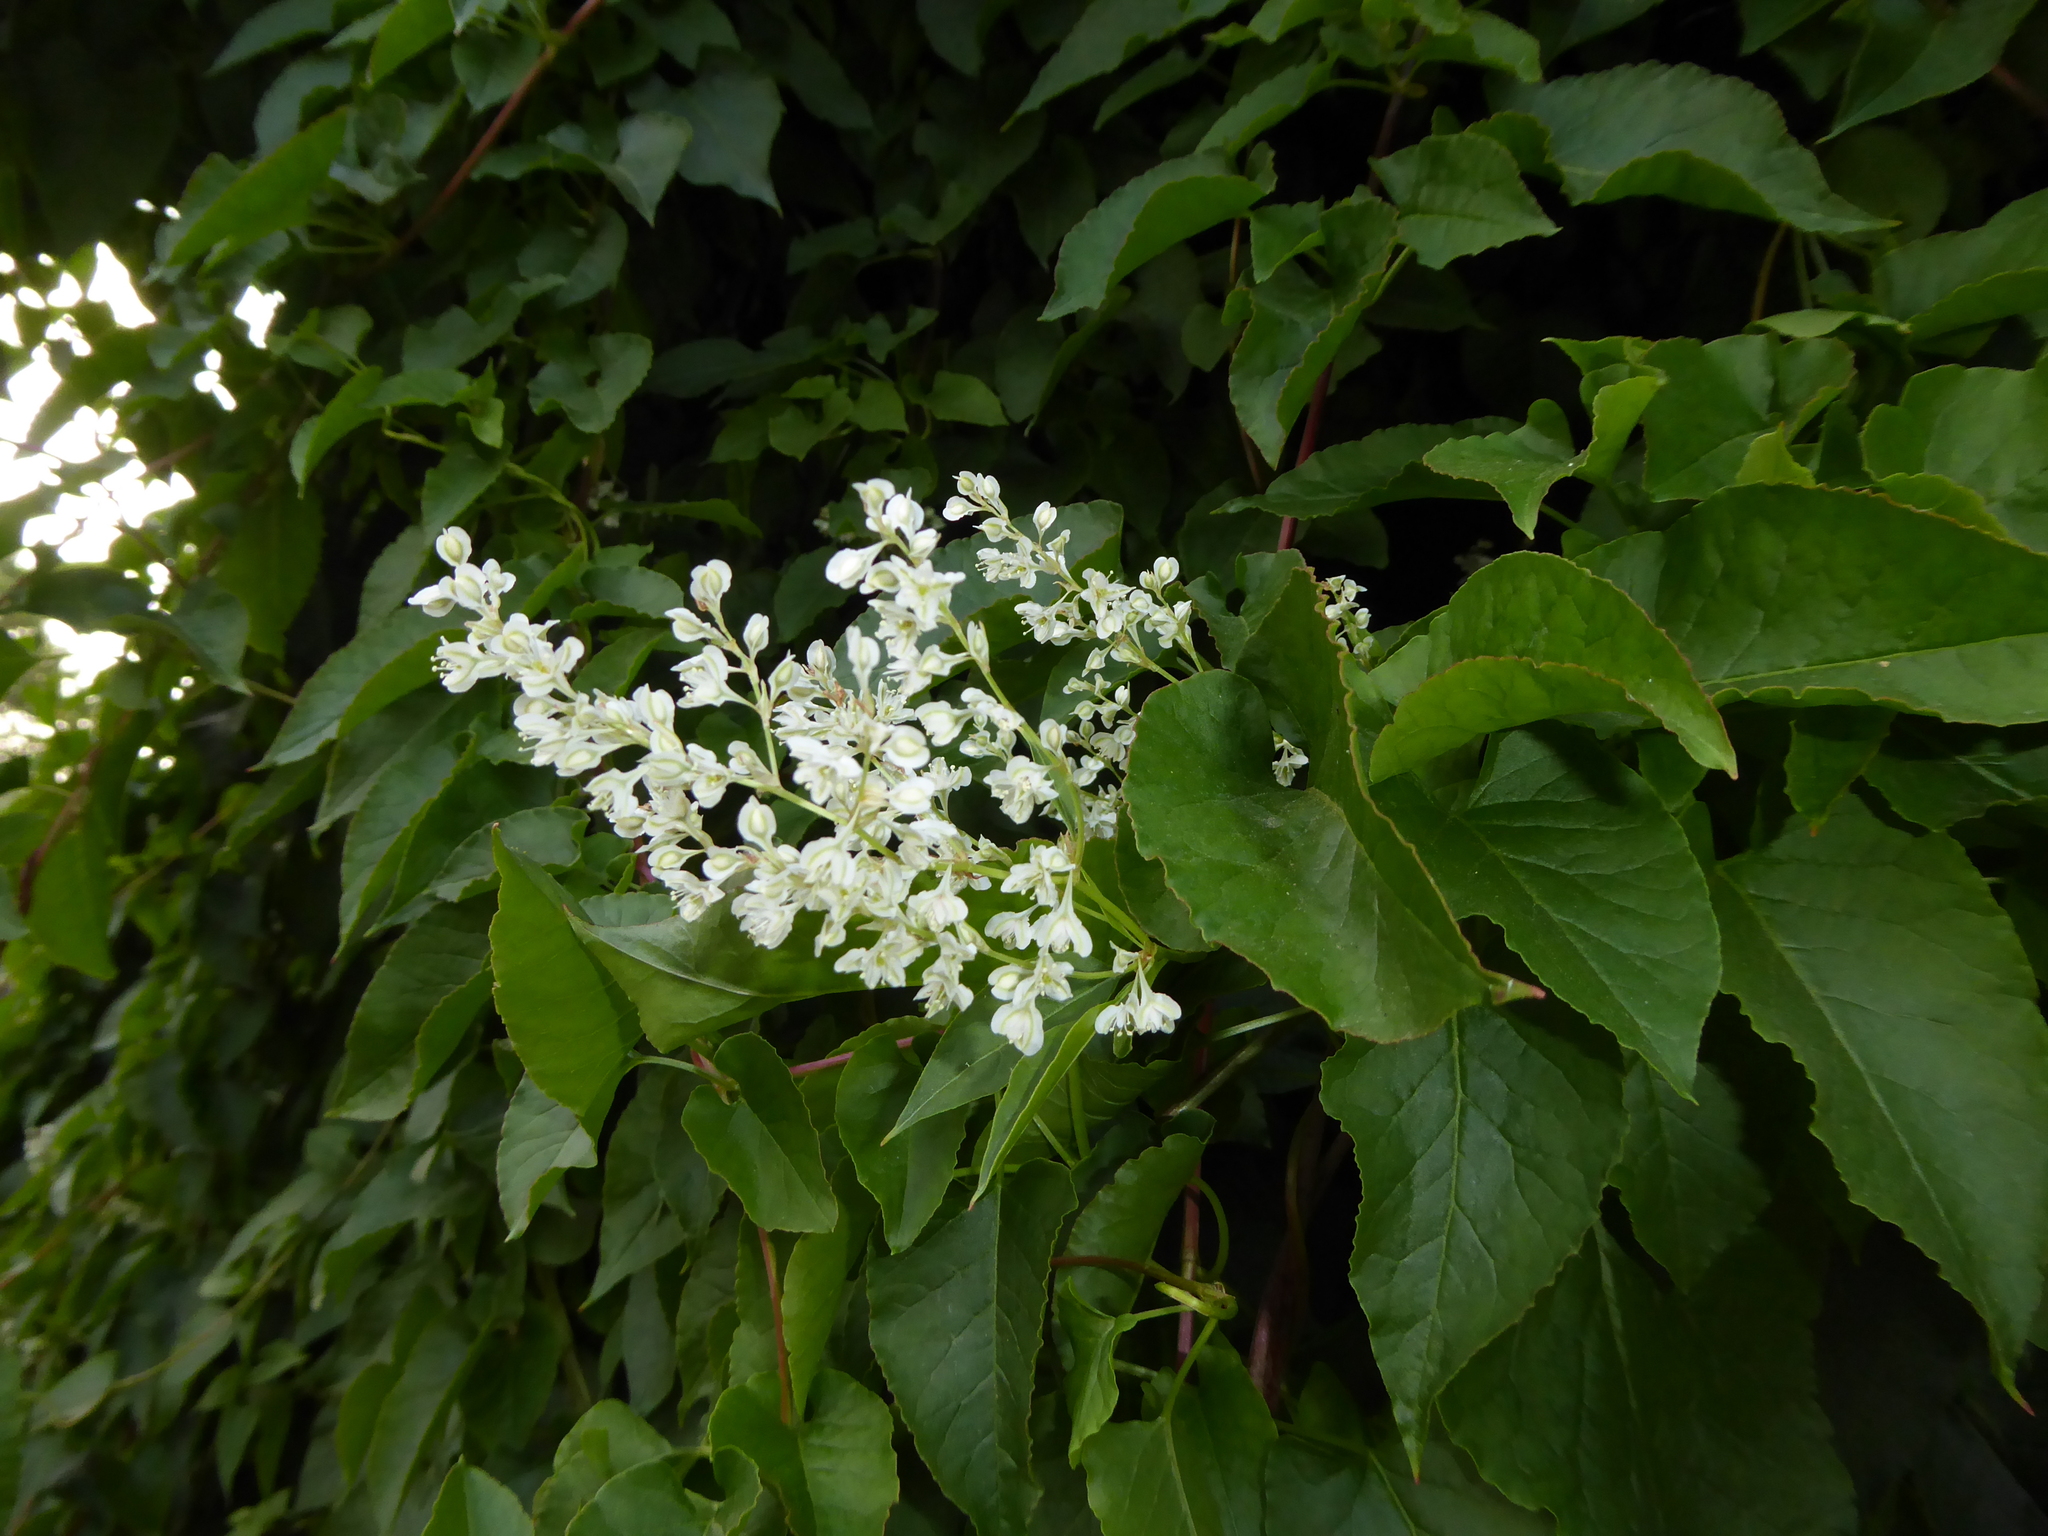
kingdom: Plantae
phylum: Tracheophyta
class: Magnoliopsida
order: Caryophyllales
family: Polygonaceae
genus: Fallopia
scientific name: Fallopia baldschuanica
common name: Russian-vine
